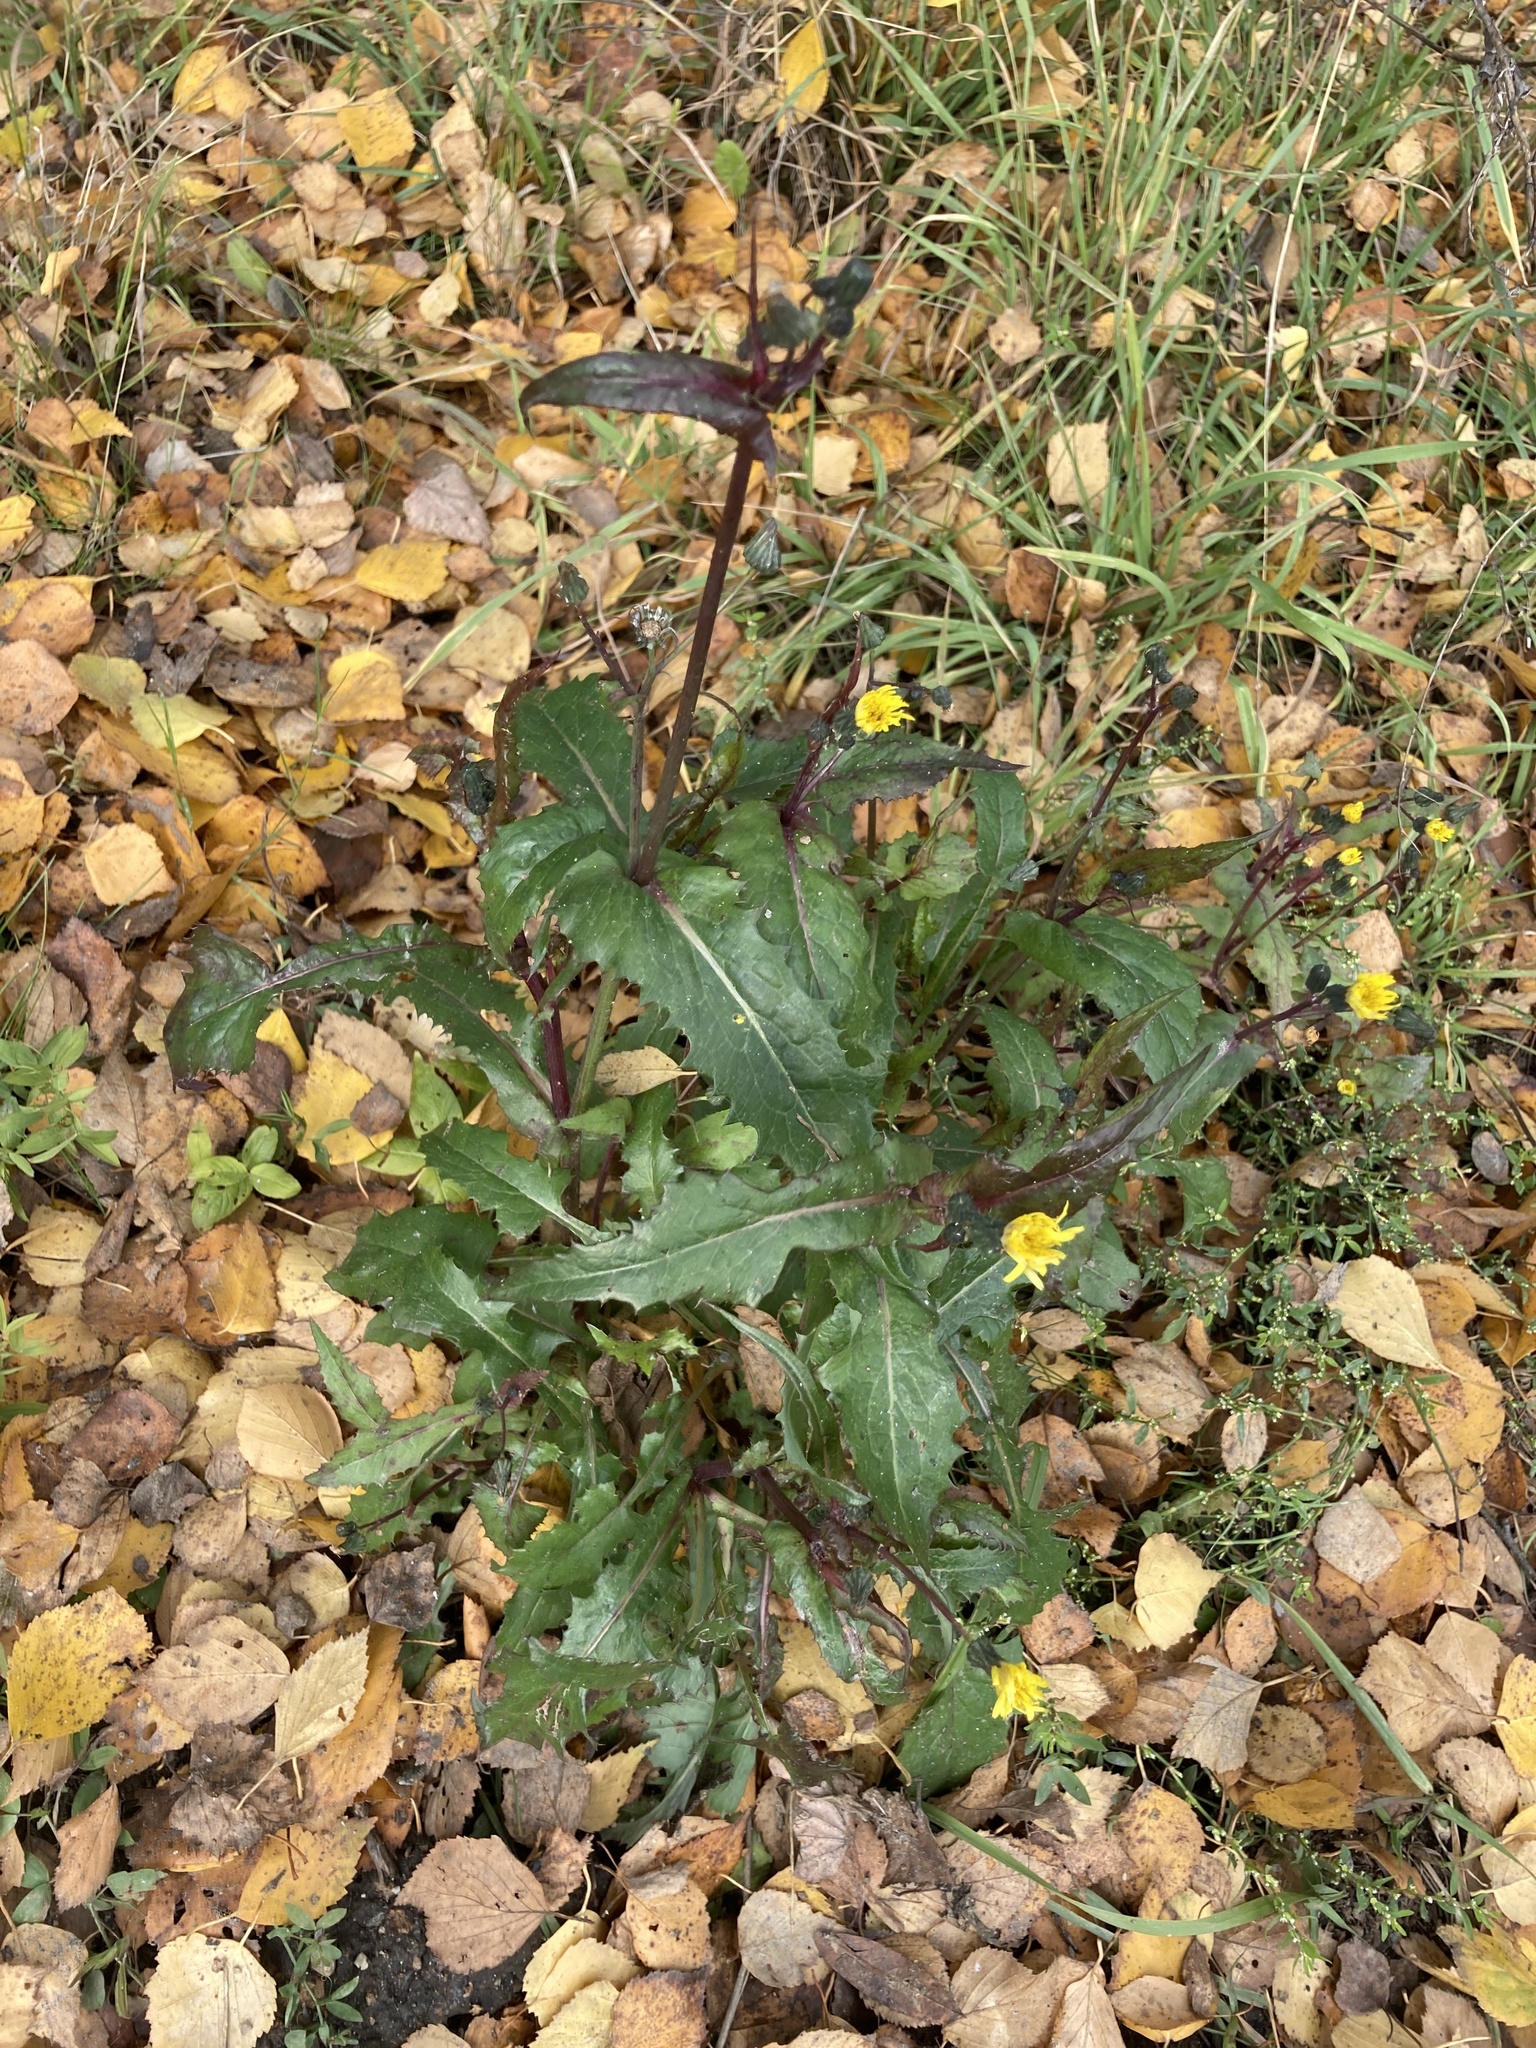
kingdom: Plantae
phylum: Tracheophyta
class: Magnoliopsida
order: Asterales
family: Asteraceae
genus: Sonchus
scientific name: Sonchus oleraceus
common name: Common sowthistle
